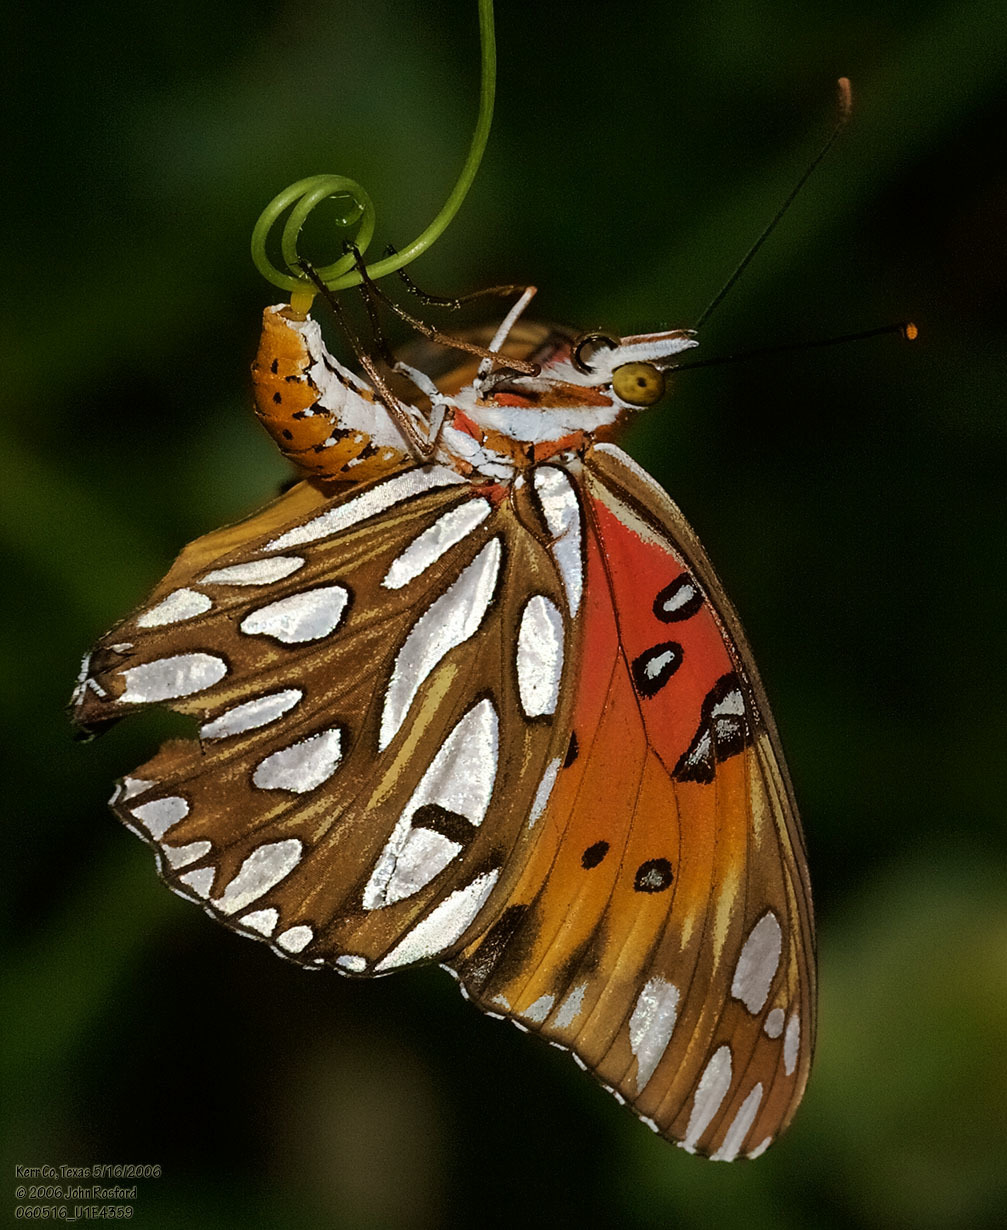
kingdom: Animalia
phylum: Arthropoda
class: Insecta
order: Lepidoptera
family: Nymphalidae
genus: Dione
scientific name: Dione vanillae
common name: Gulf fritillary
